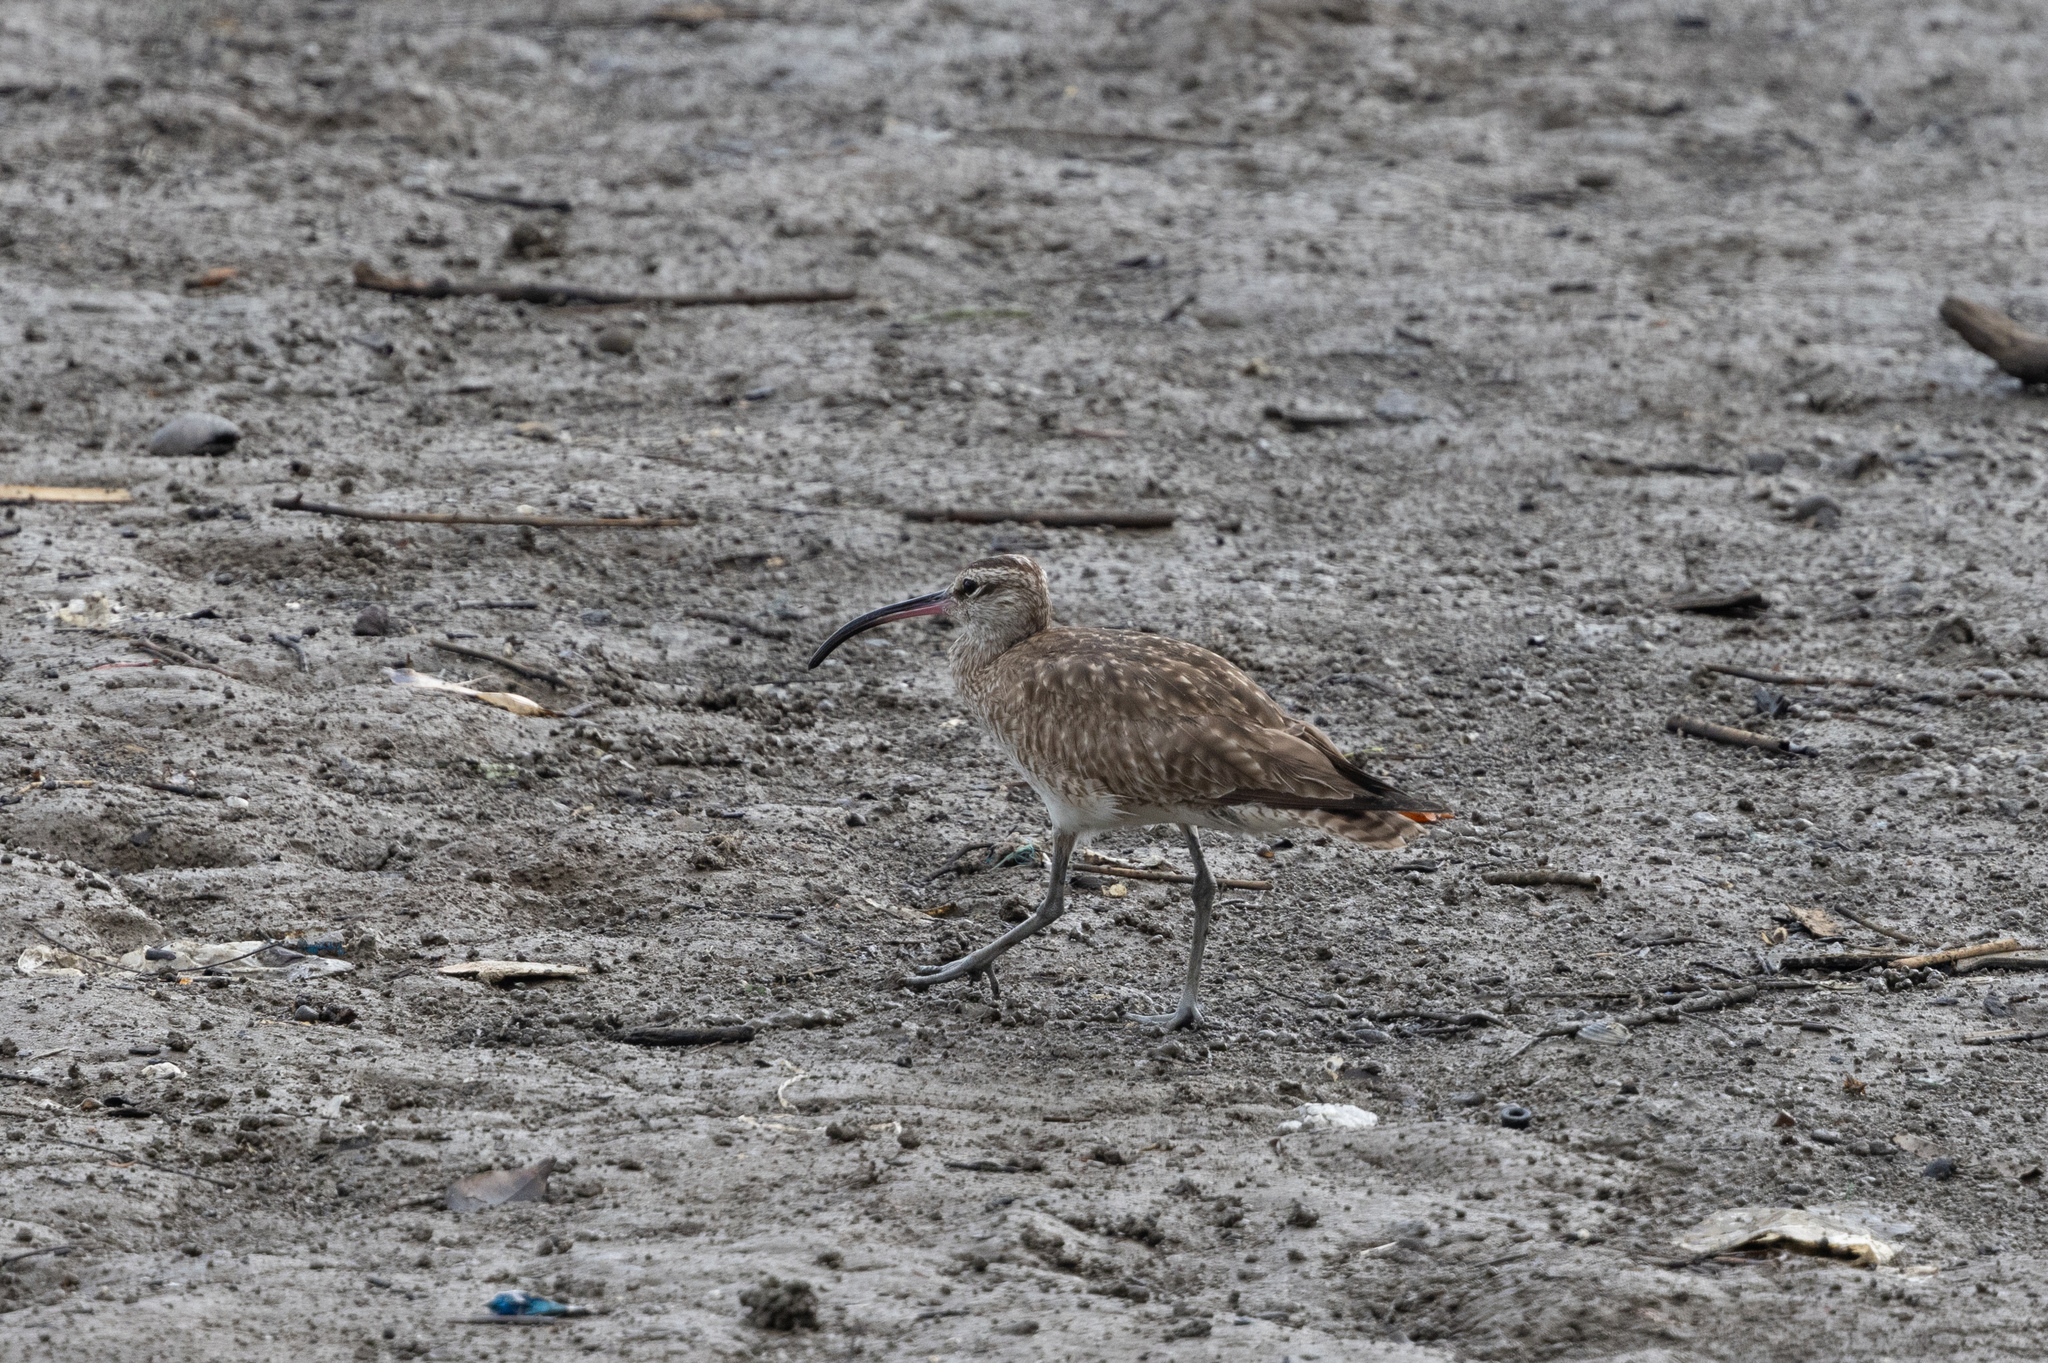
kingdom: Animalia
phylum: Chordata
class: Aves
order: Charadriiformes
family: Scolopacidae
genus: Numenius
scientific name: Numenius phaeopus
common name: Whimbrel
